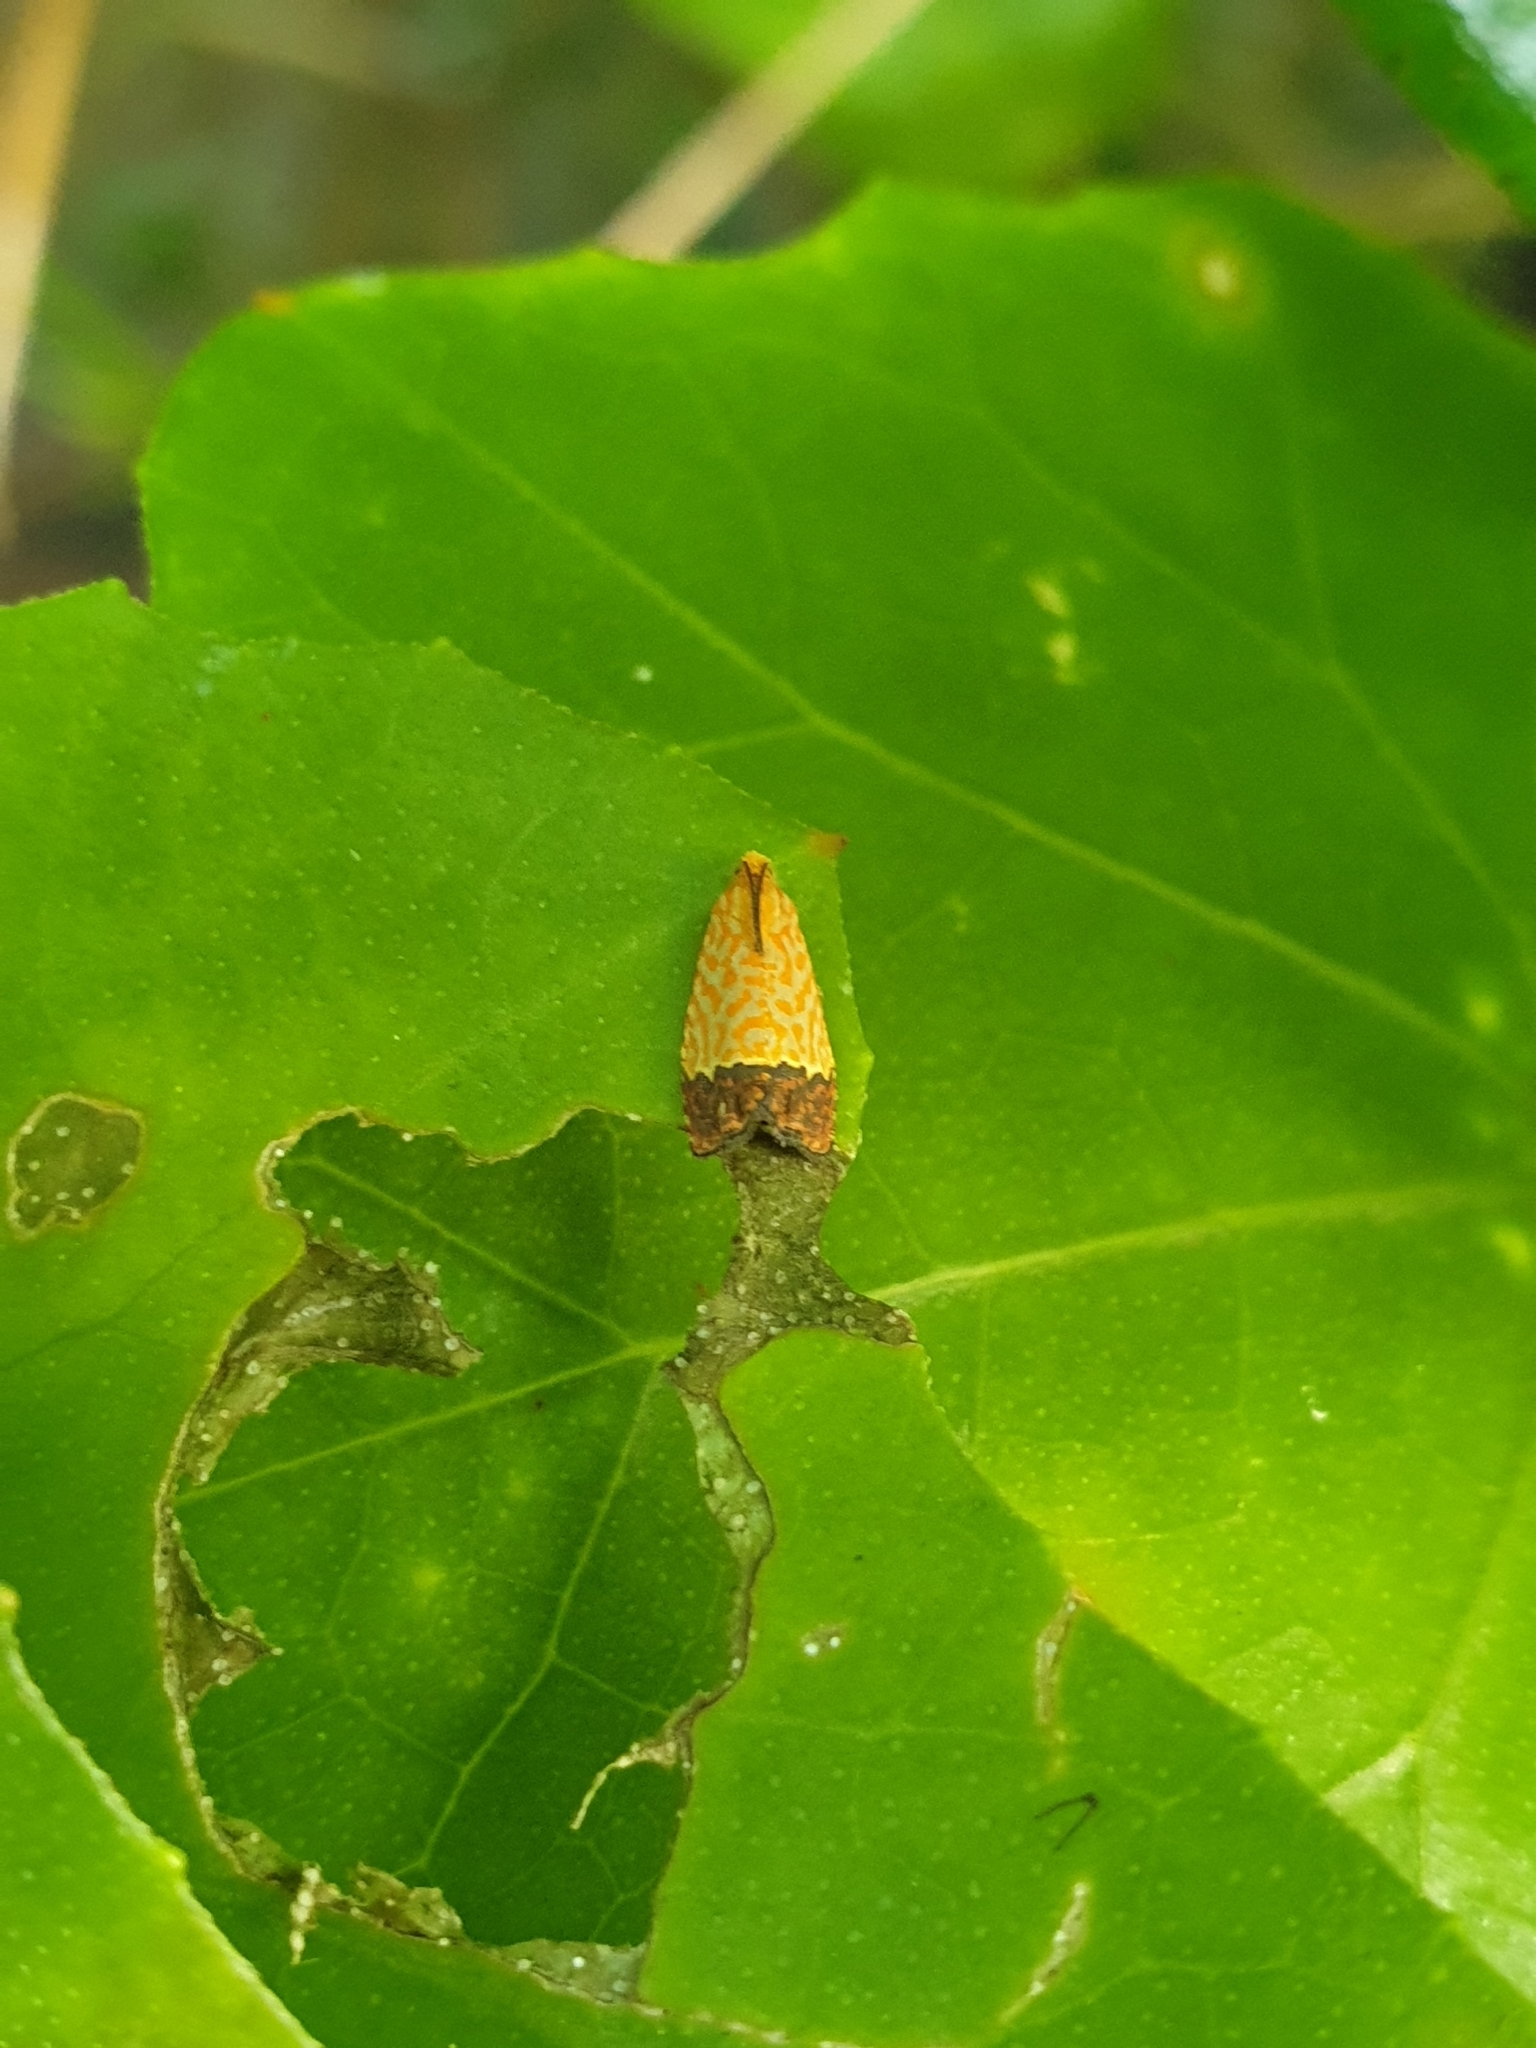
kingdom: Animalia
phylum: Arthropoda
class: Insecta
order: Lepidoptera
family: Tortricidae
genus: Loboschiza
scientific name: Loboschiza koenigiana
